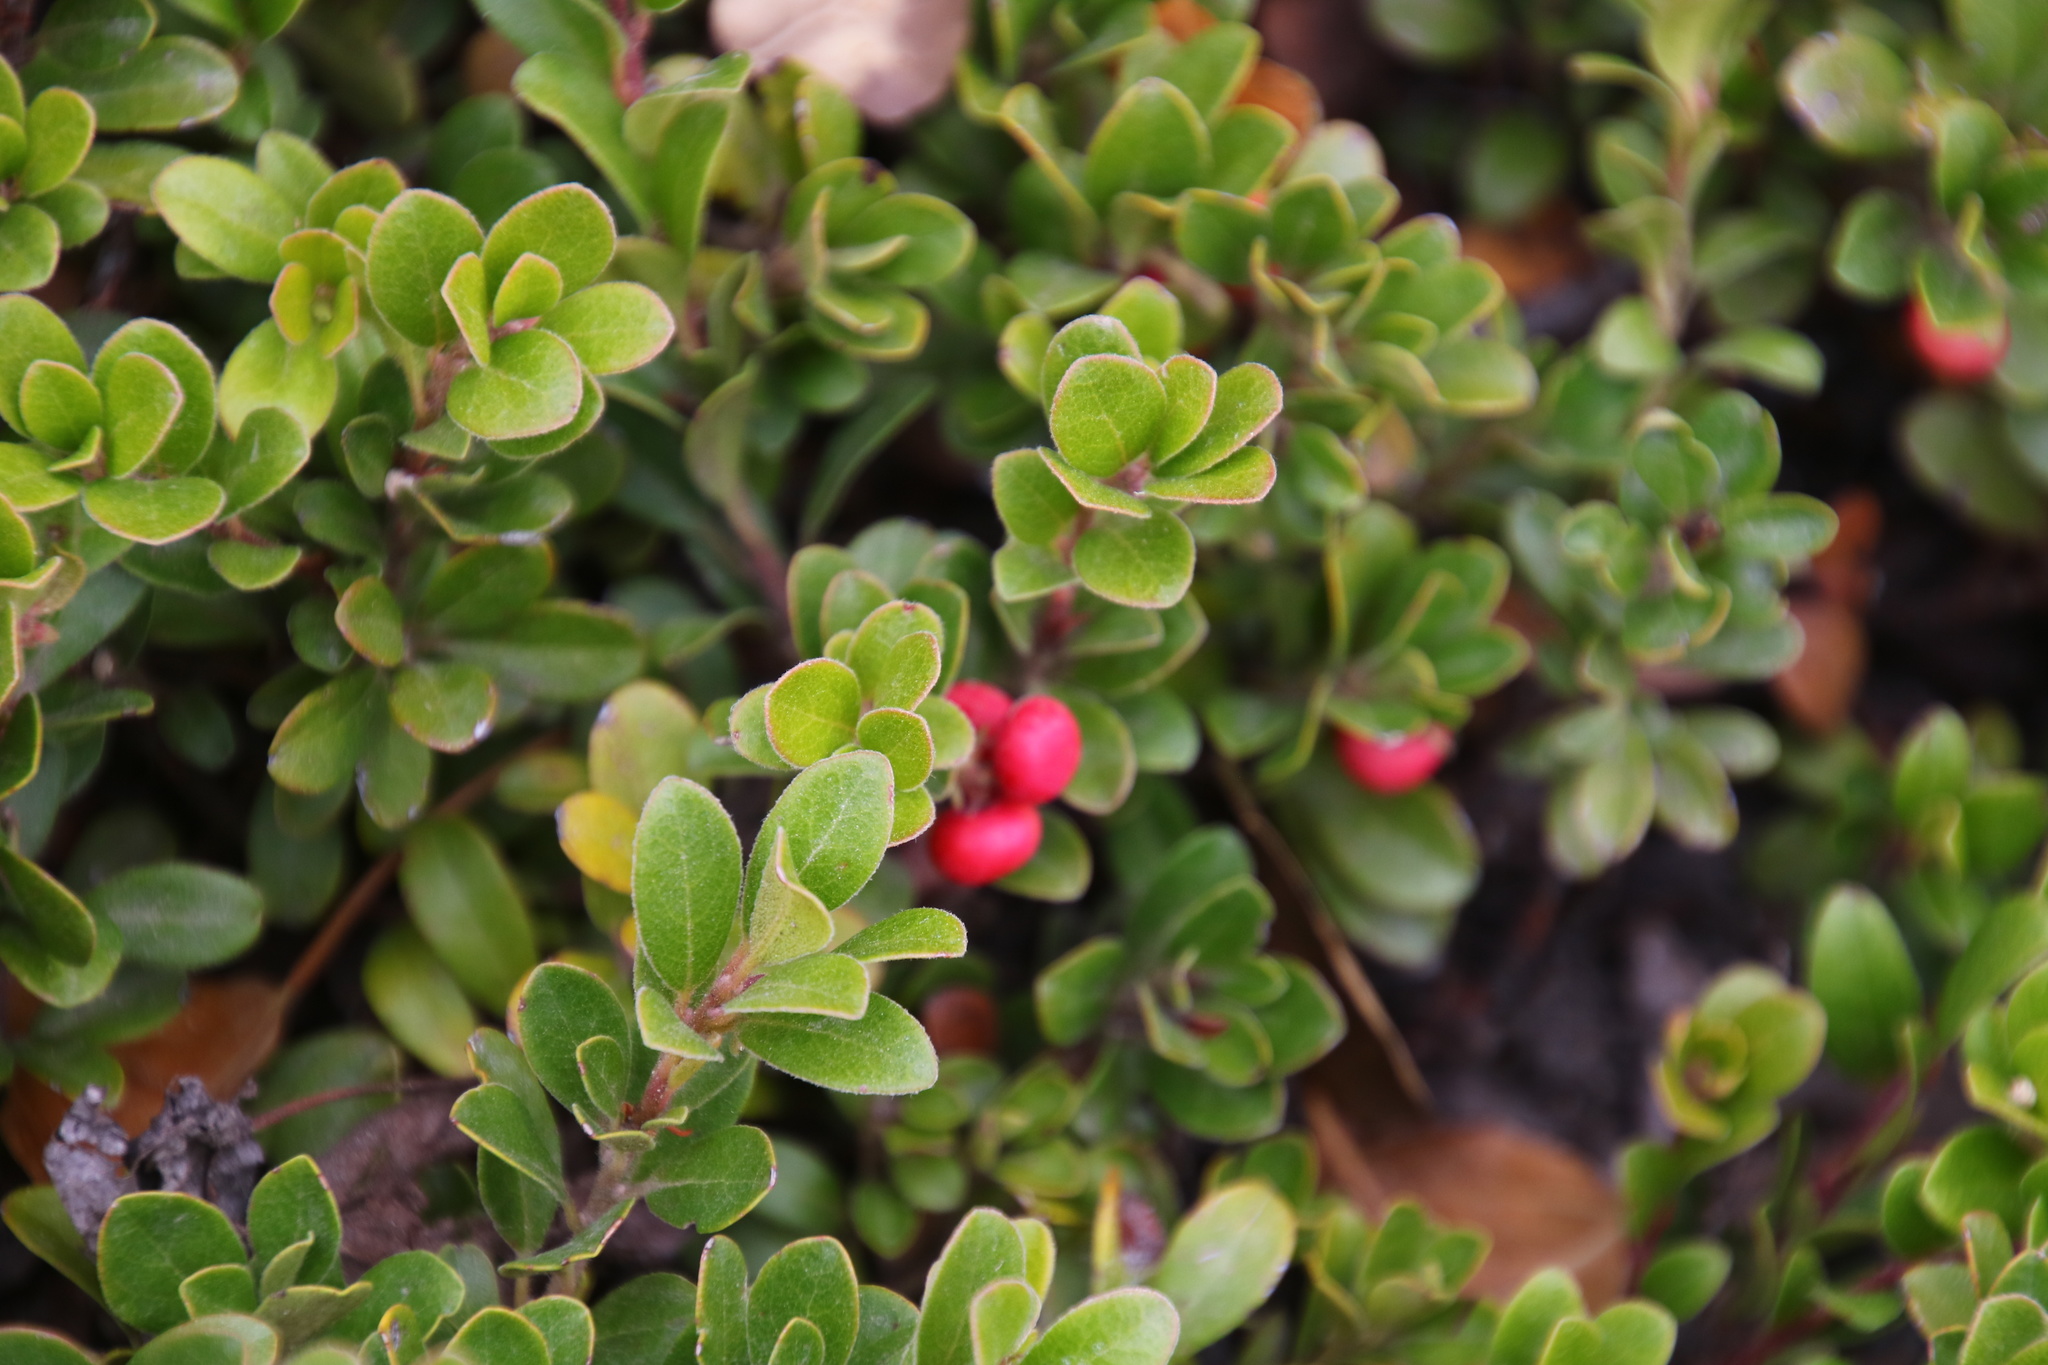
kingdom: Plantae
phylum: Tracheophyta
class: Magnoliopsida
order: Ericales
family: Ericaceae
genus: Arctostaphylos
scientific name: Arctostaphylos uva-ursi
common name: Bearberry
